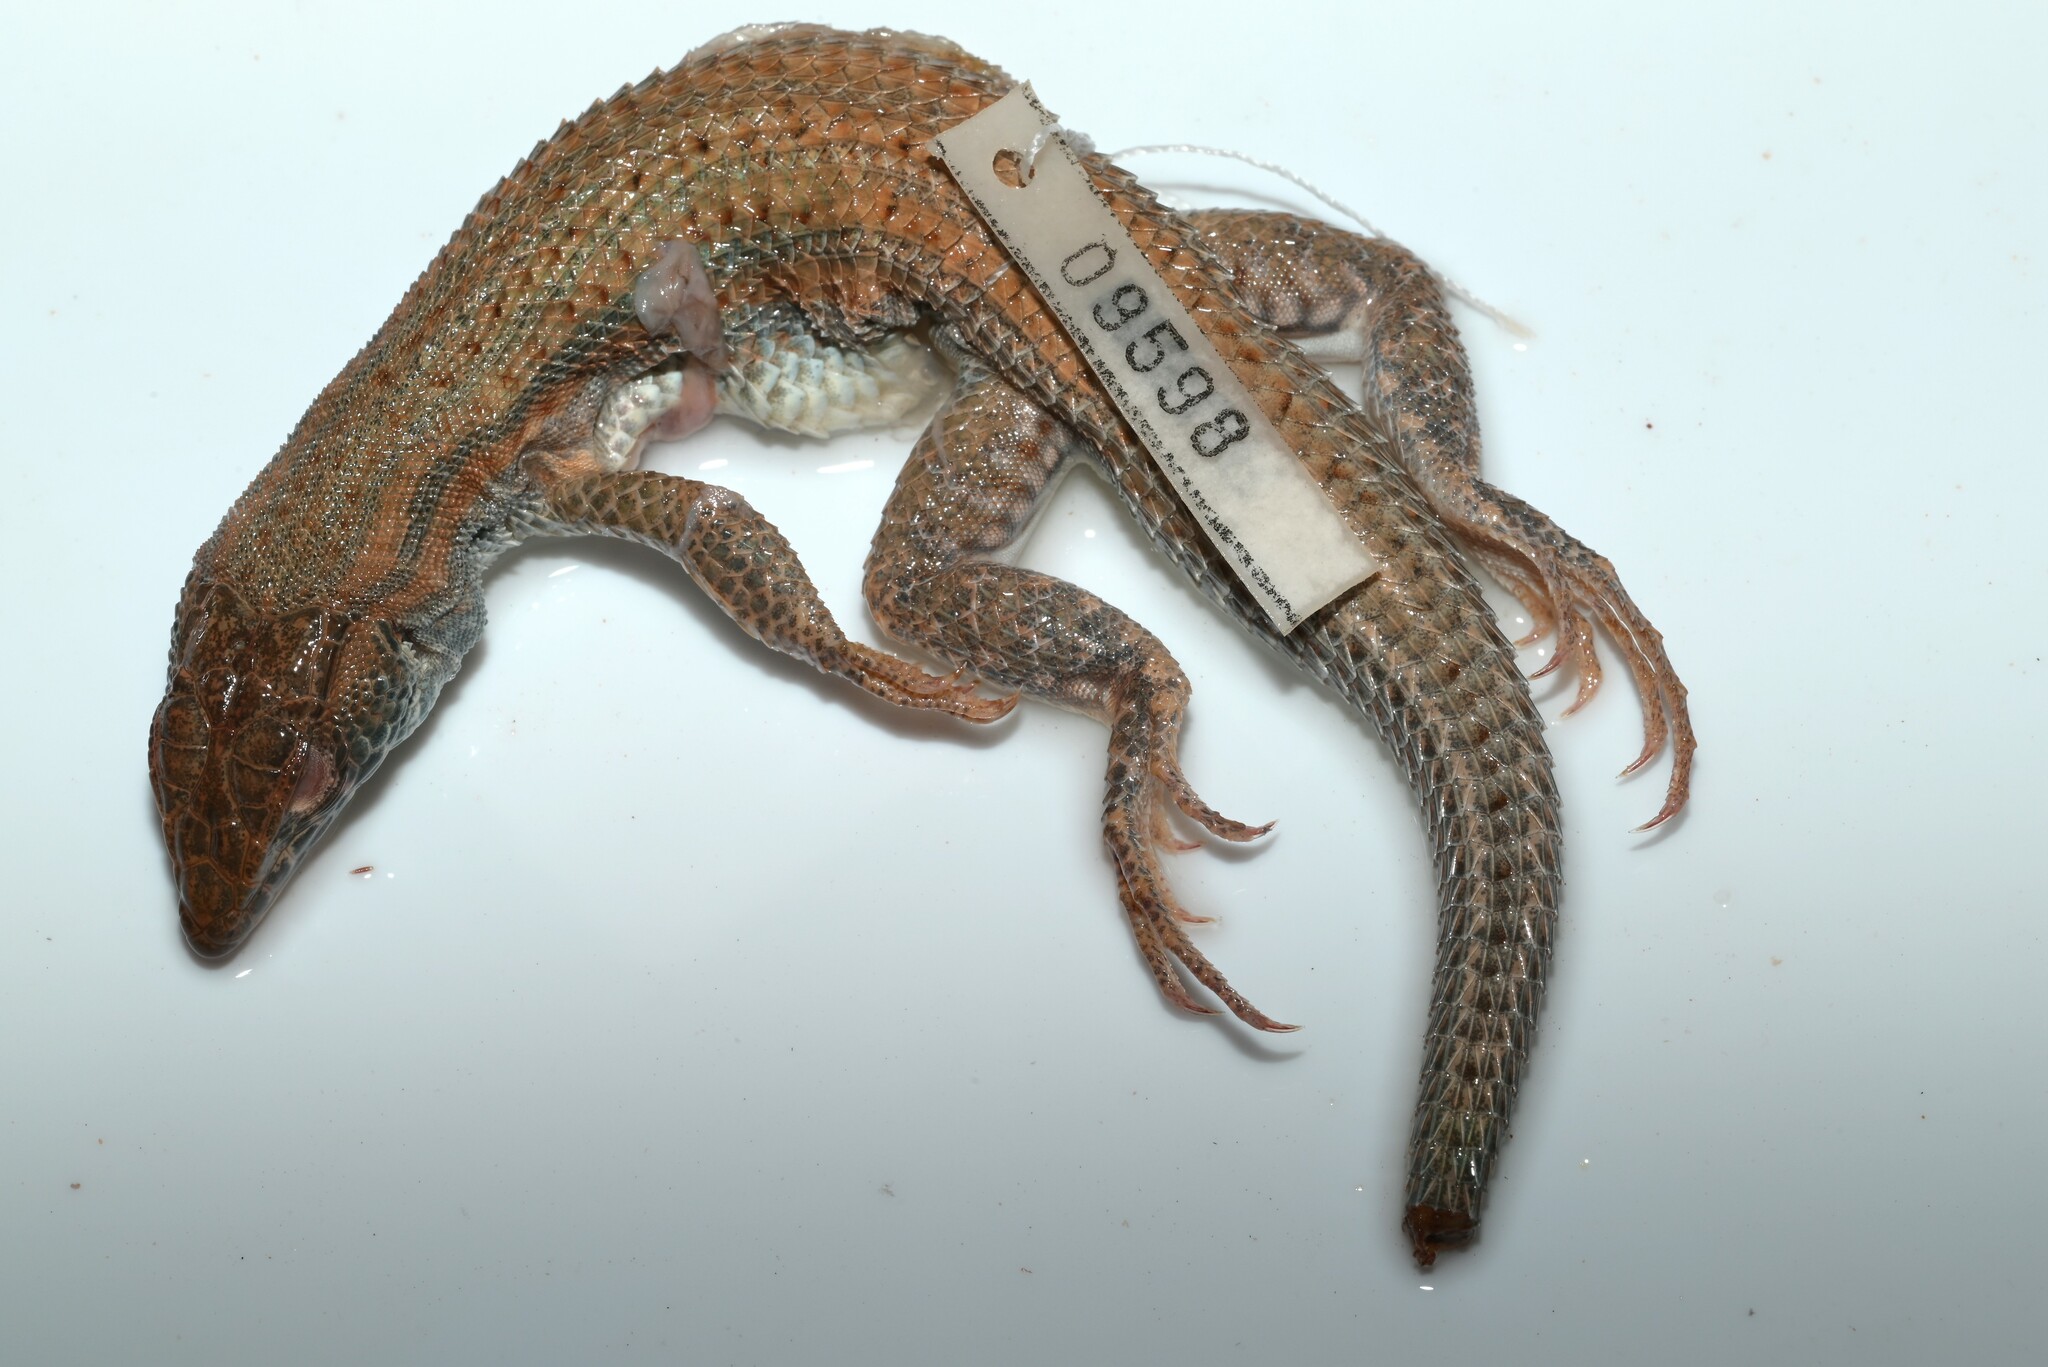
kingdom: Animalia
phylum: Chordata
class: Squamata
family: Lacertidae
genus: Acanthodactylus
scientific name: Acanthodactylus boskianus
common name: Bosc’s fringe-toed lizard
